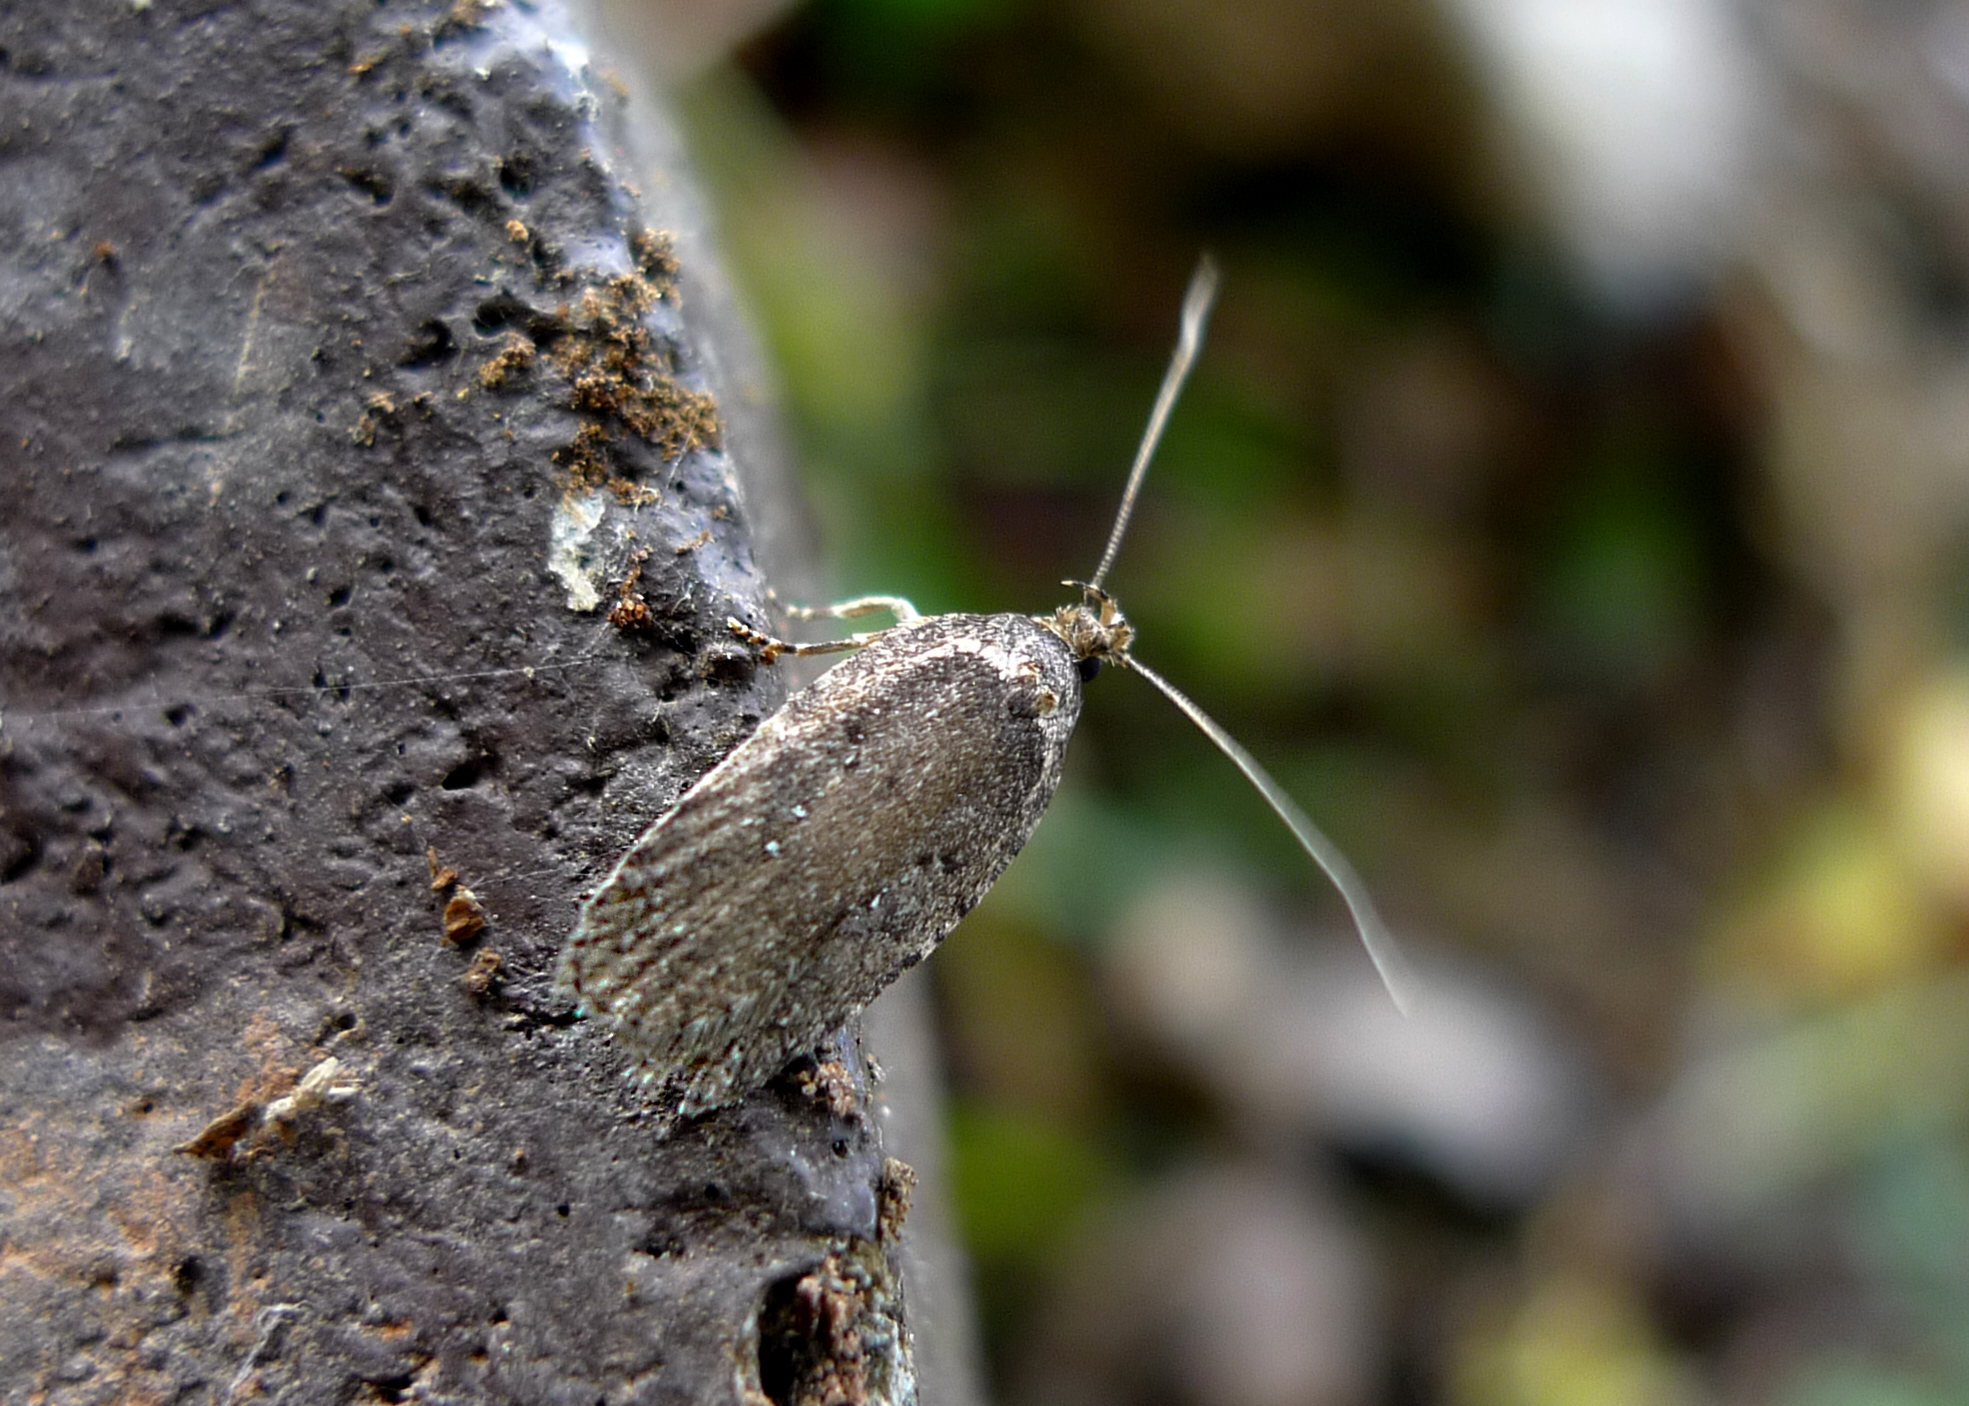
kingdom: Animalia
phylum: Arthropoda
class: Insecta
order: Lepidoptera
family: Depressariidae
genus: Agonopterix
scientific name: Agonopterix
